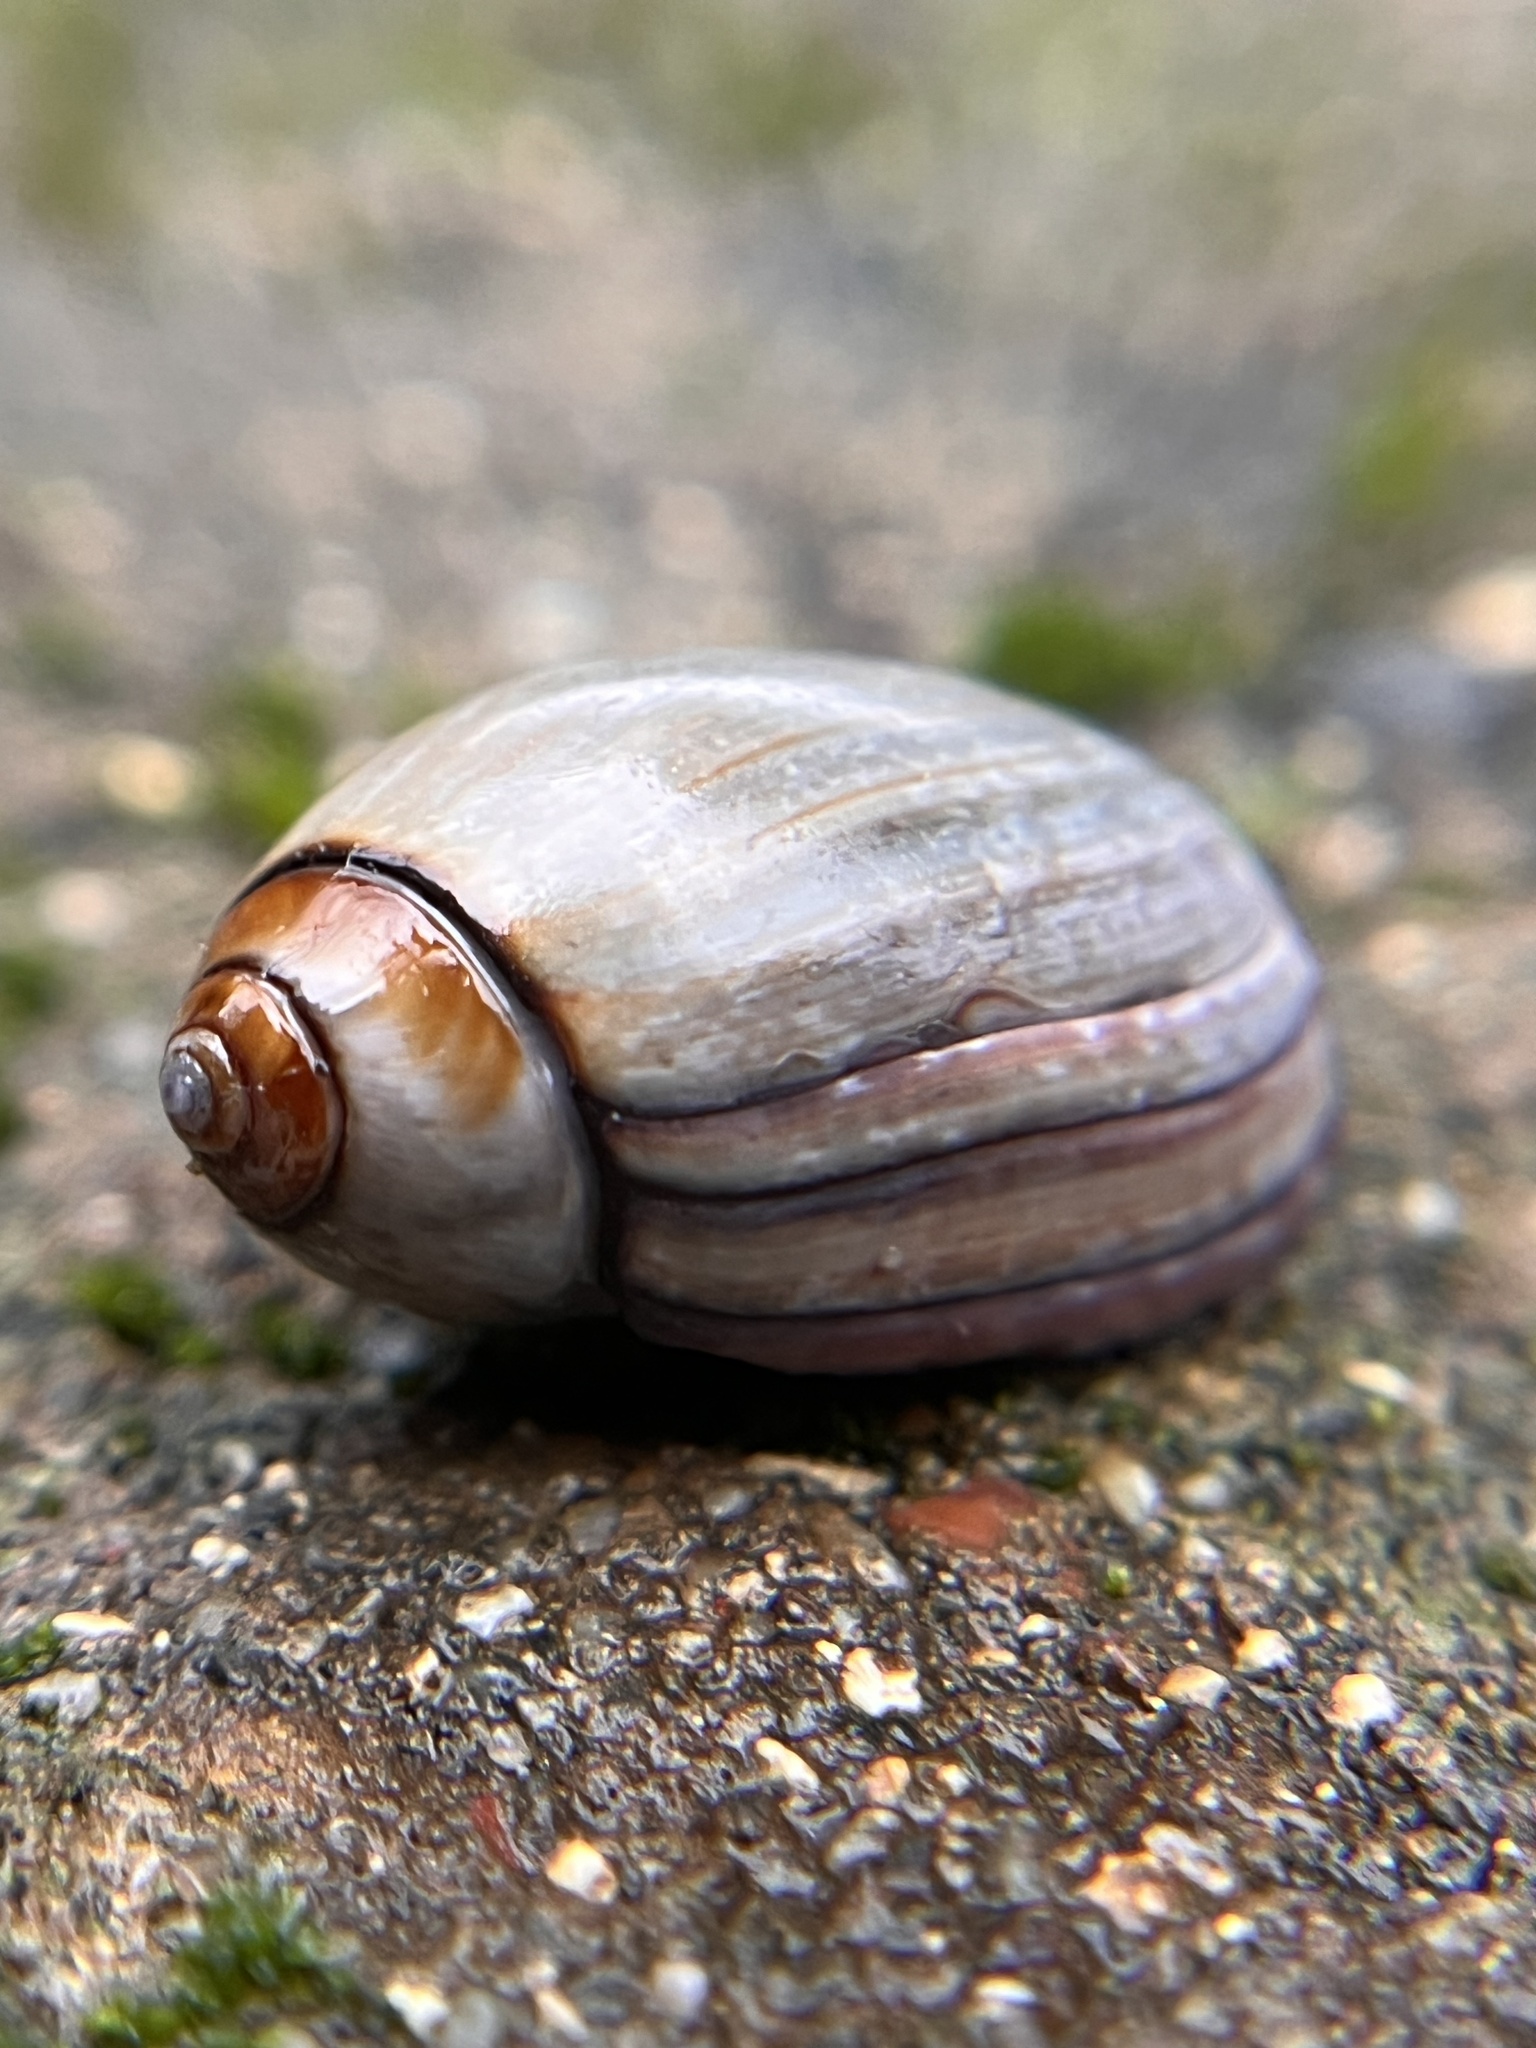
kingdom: Animalia
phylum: Mollusca
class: Gastropoda
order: Neogastropoda
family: Olividae
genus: Callianax
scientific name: Callianax biplicata
